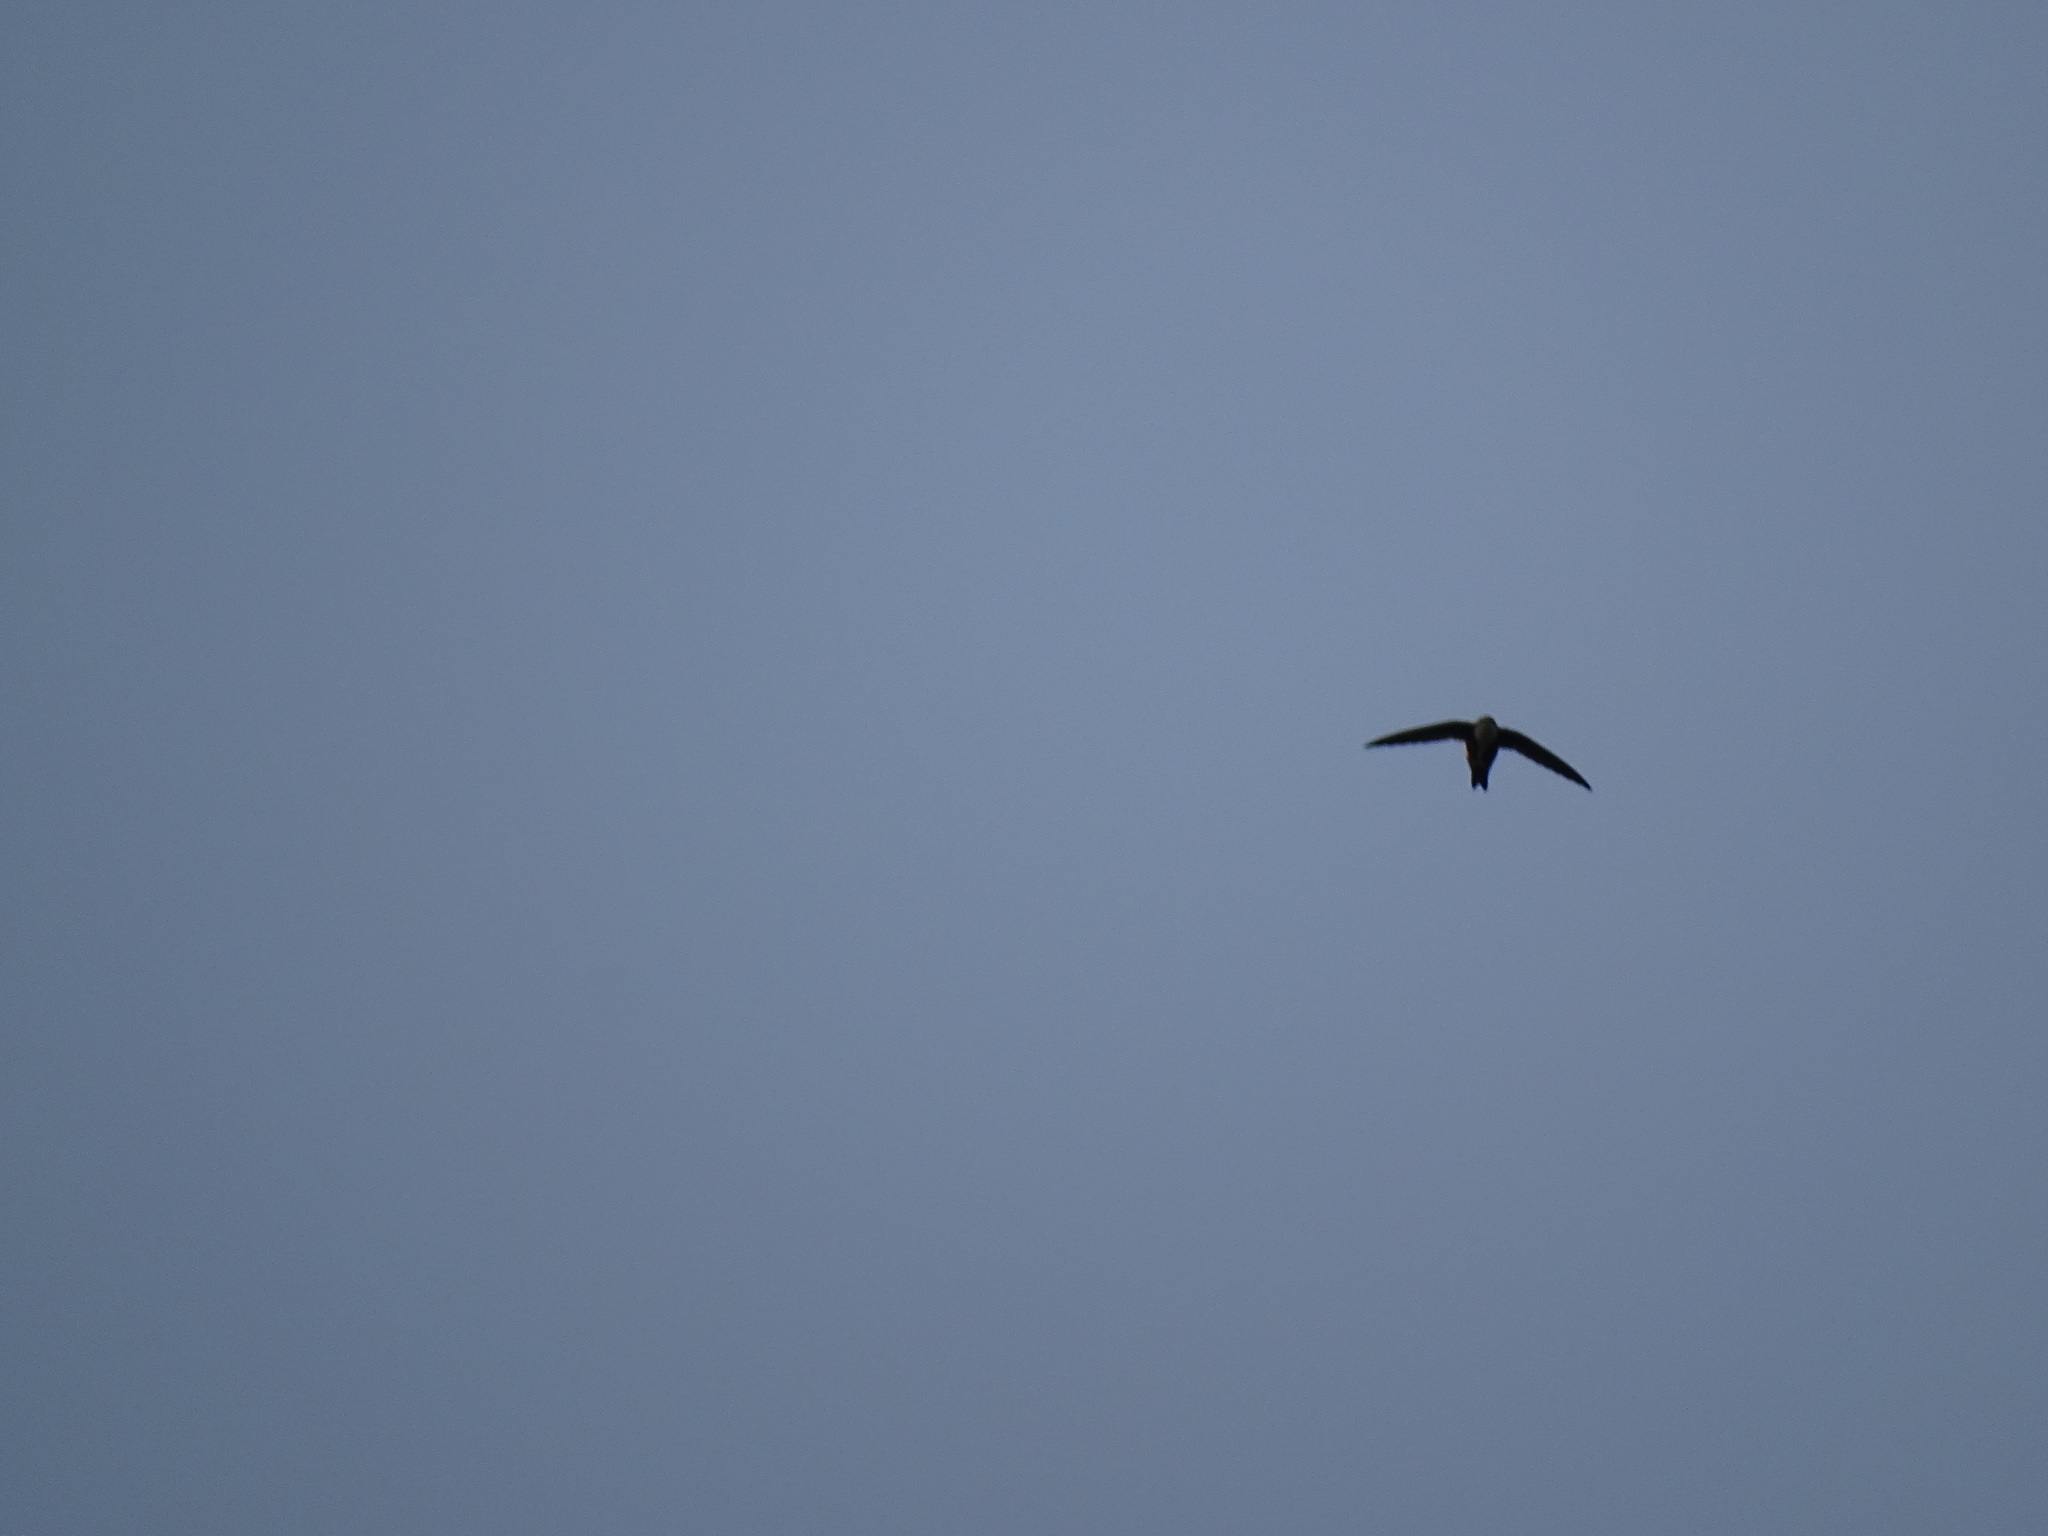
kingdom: Animalia
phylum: Chordata
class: Aves
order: Apodiformes
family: Apodidae
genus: Aeronautes
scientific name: Aeronautes saxatalis
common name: White-throated swift
